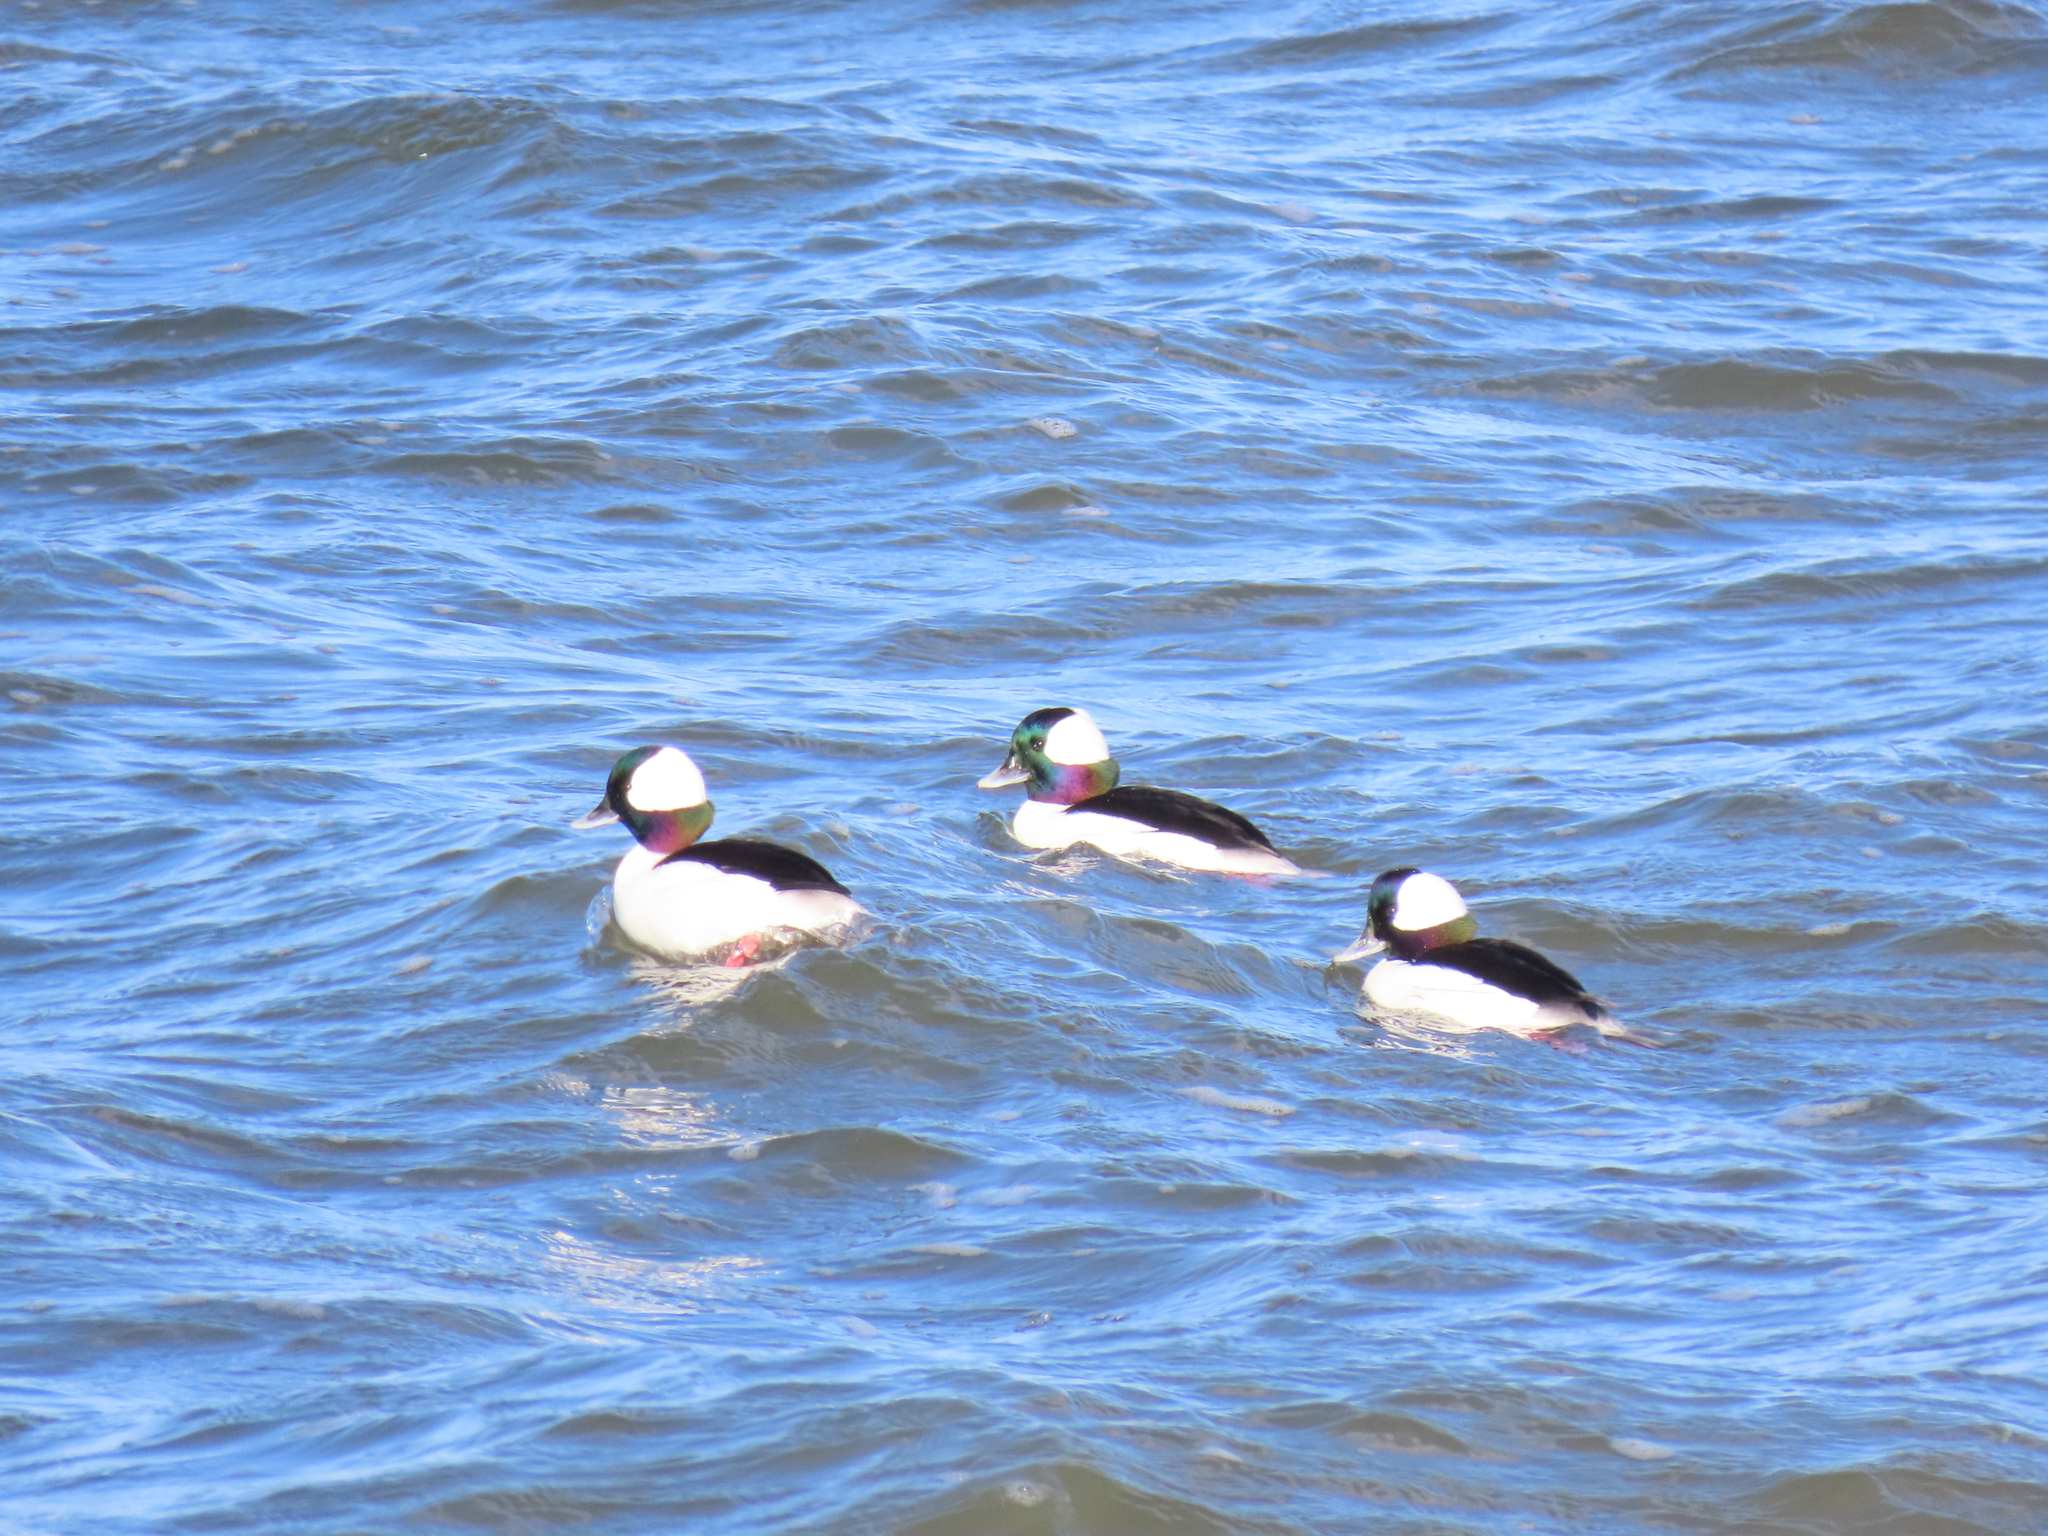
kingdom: Animalia
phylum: Chordata
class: Aves
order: Anseriformes
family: Anatidae
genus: Bucephala
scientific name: Bucephala albeola
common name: Bufflehead
